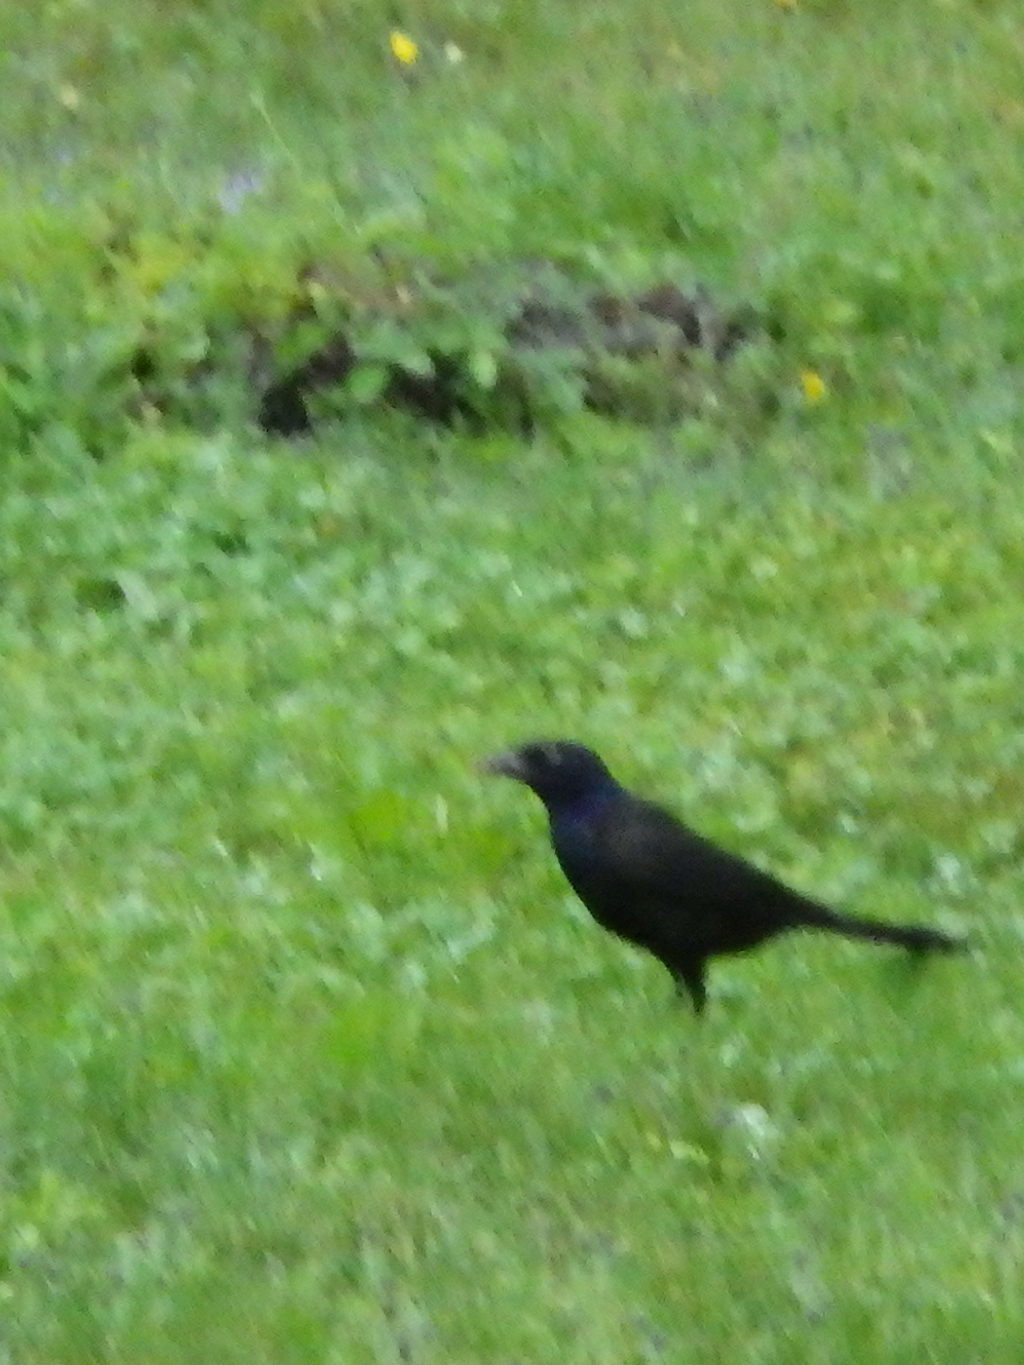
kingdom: Animalia
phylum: Chordata
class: Aves
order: Passeriformes
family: Icteridae
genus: Quiscalus
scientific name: Quiscalus quiscula
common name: Common grackle
